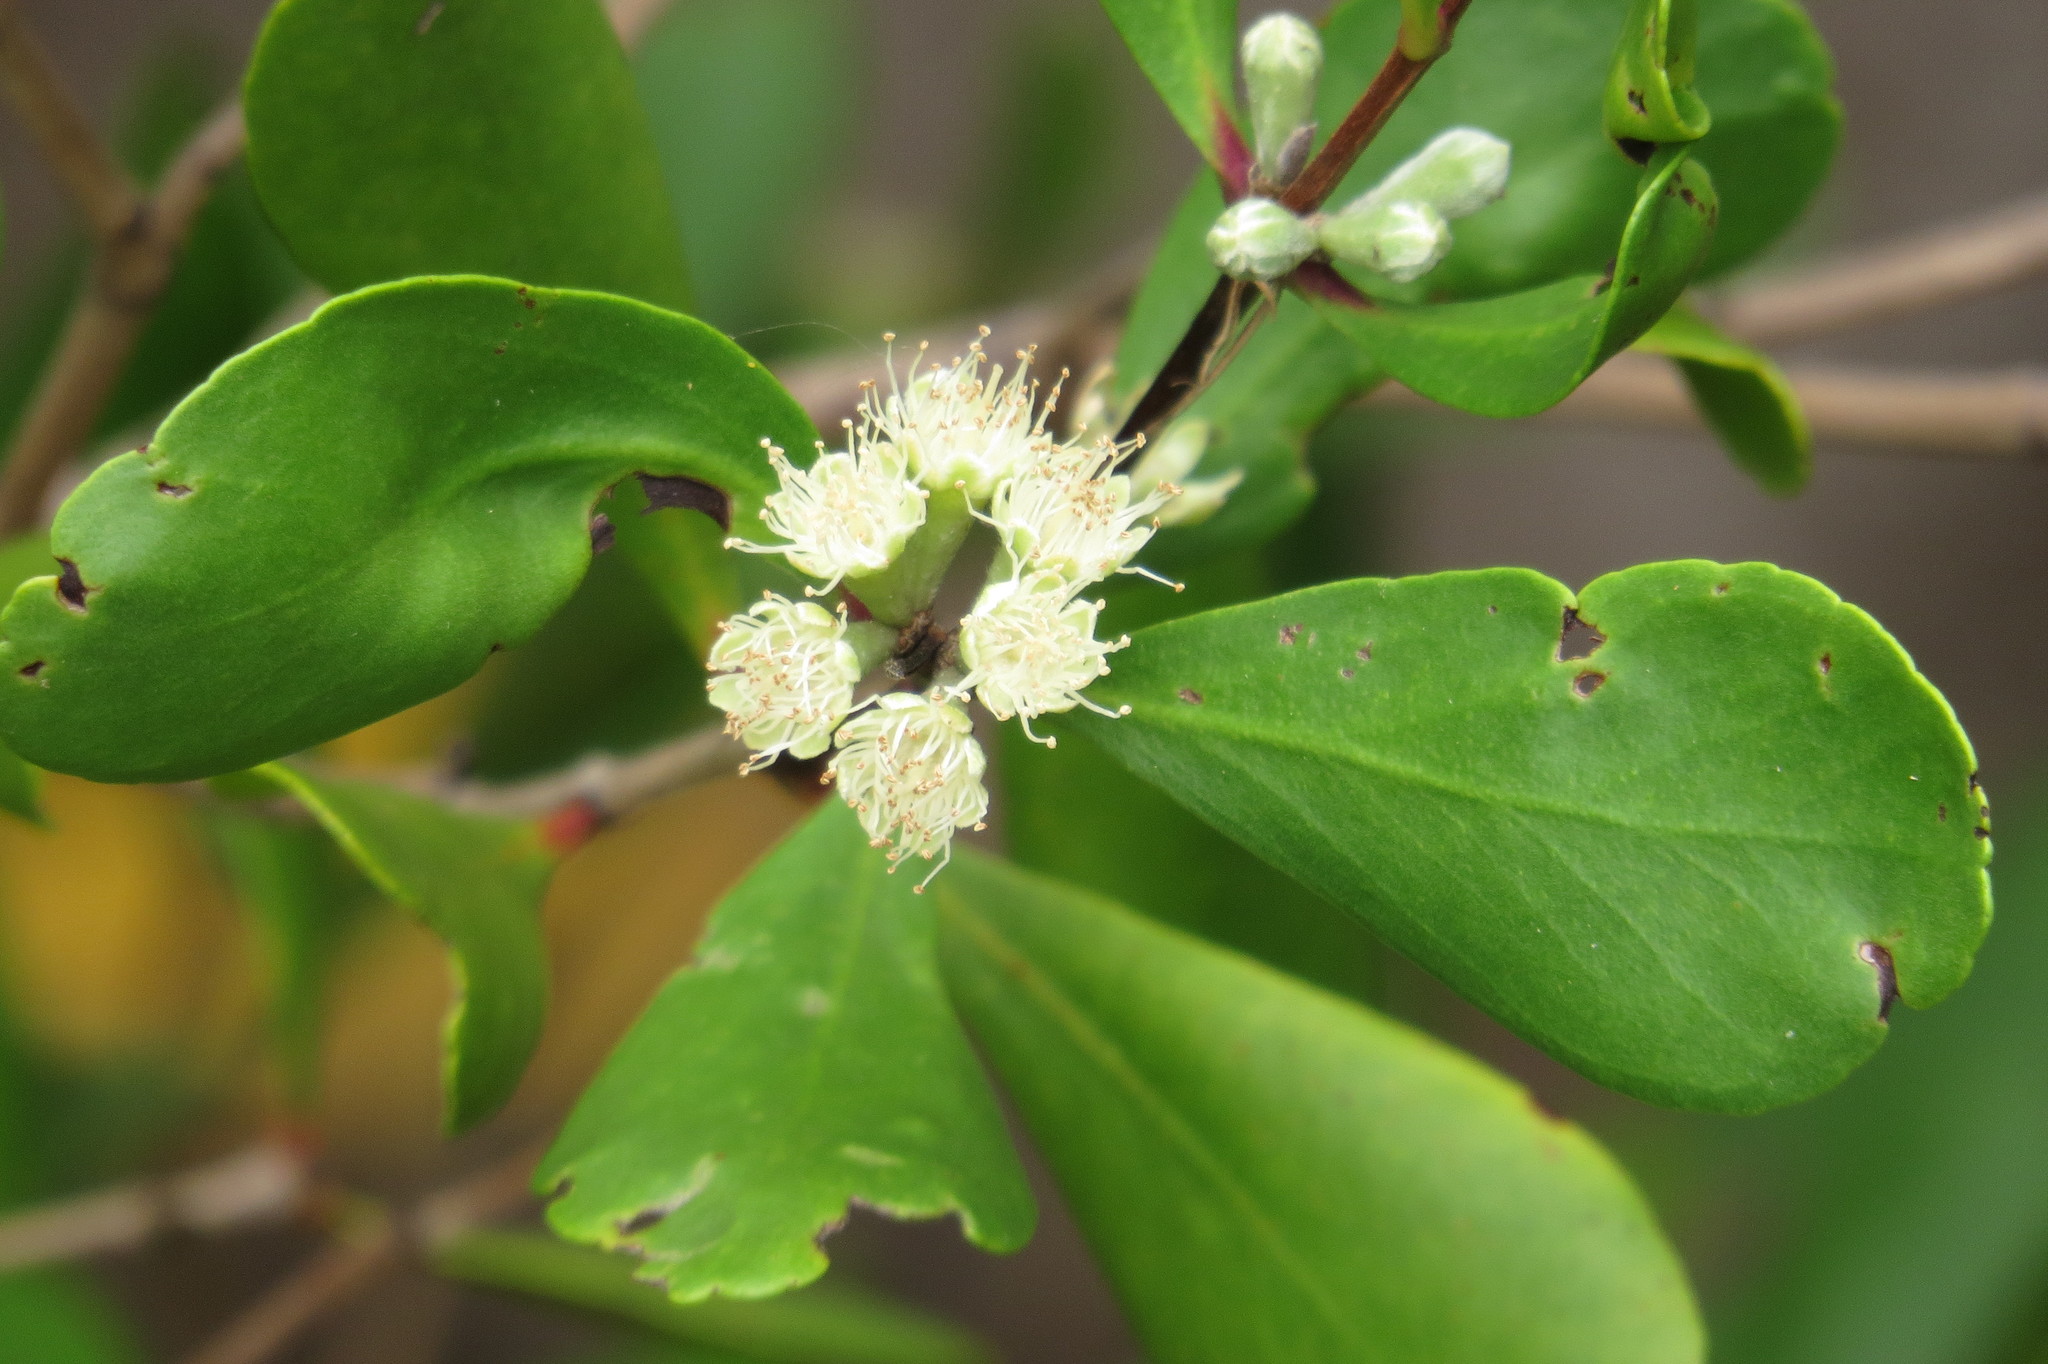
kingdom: Plantae
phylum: Tracheophyta
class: Magnoliopsida
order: Myrtales
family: Myrtaceae
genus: Osbornia
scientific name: Osbornia octodonta
